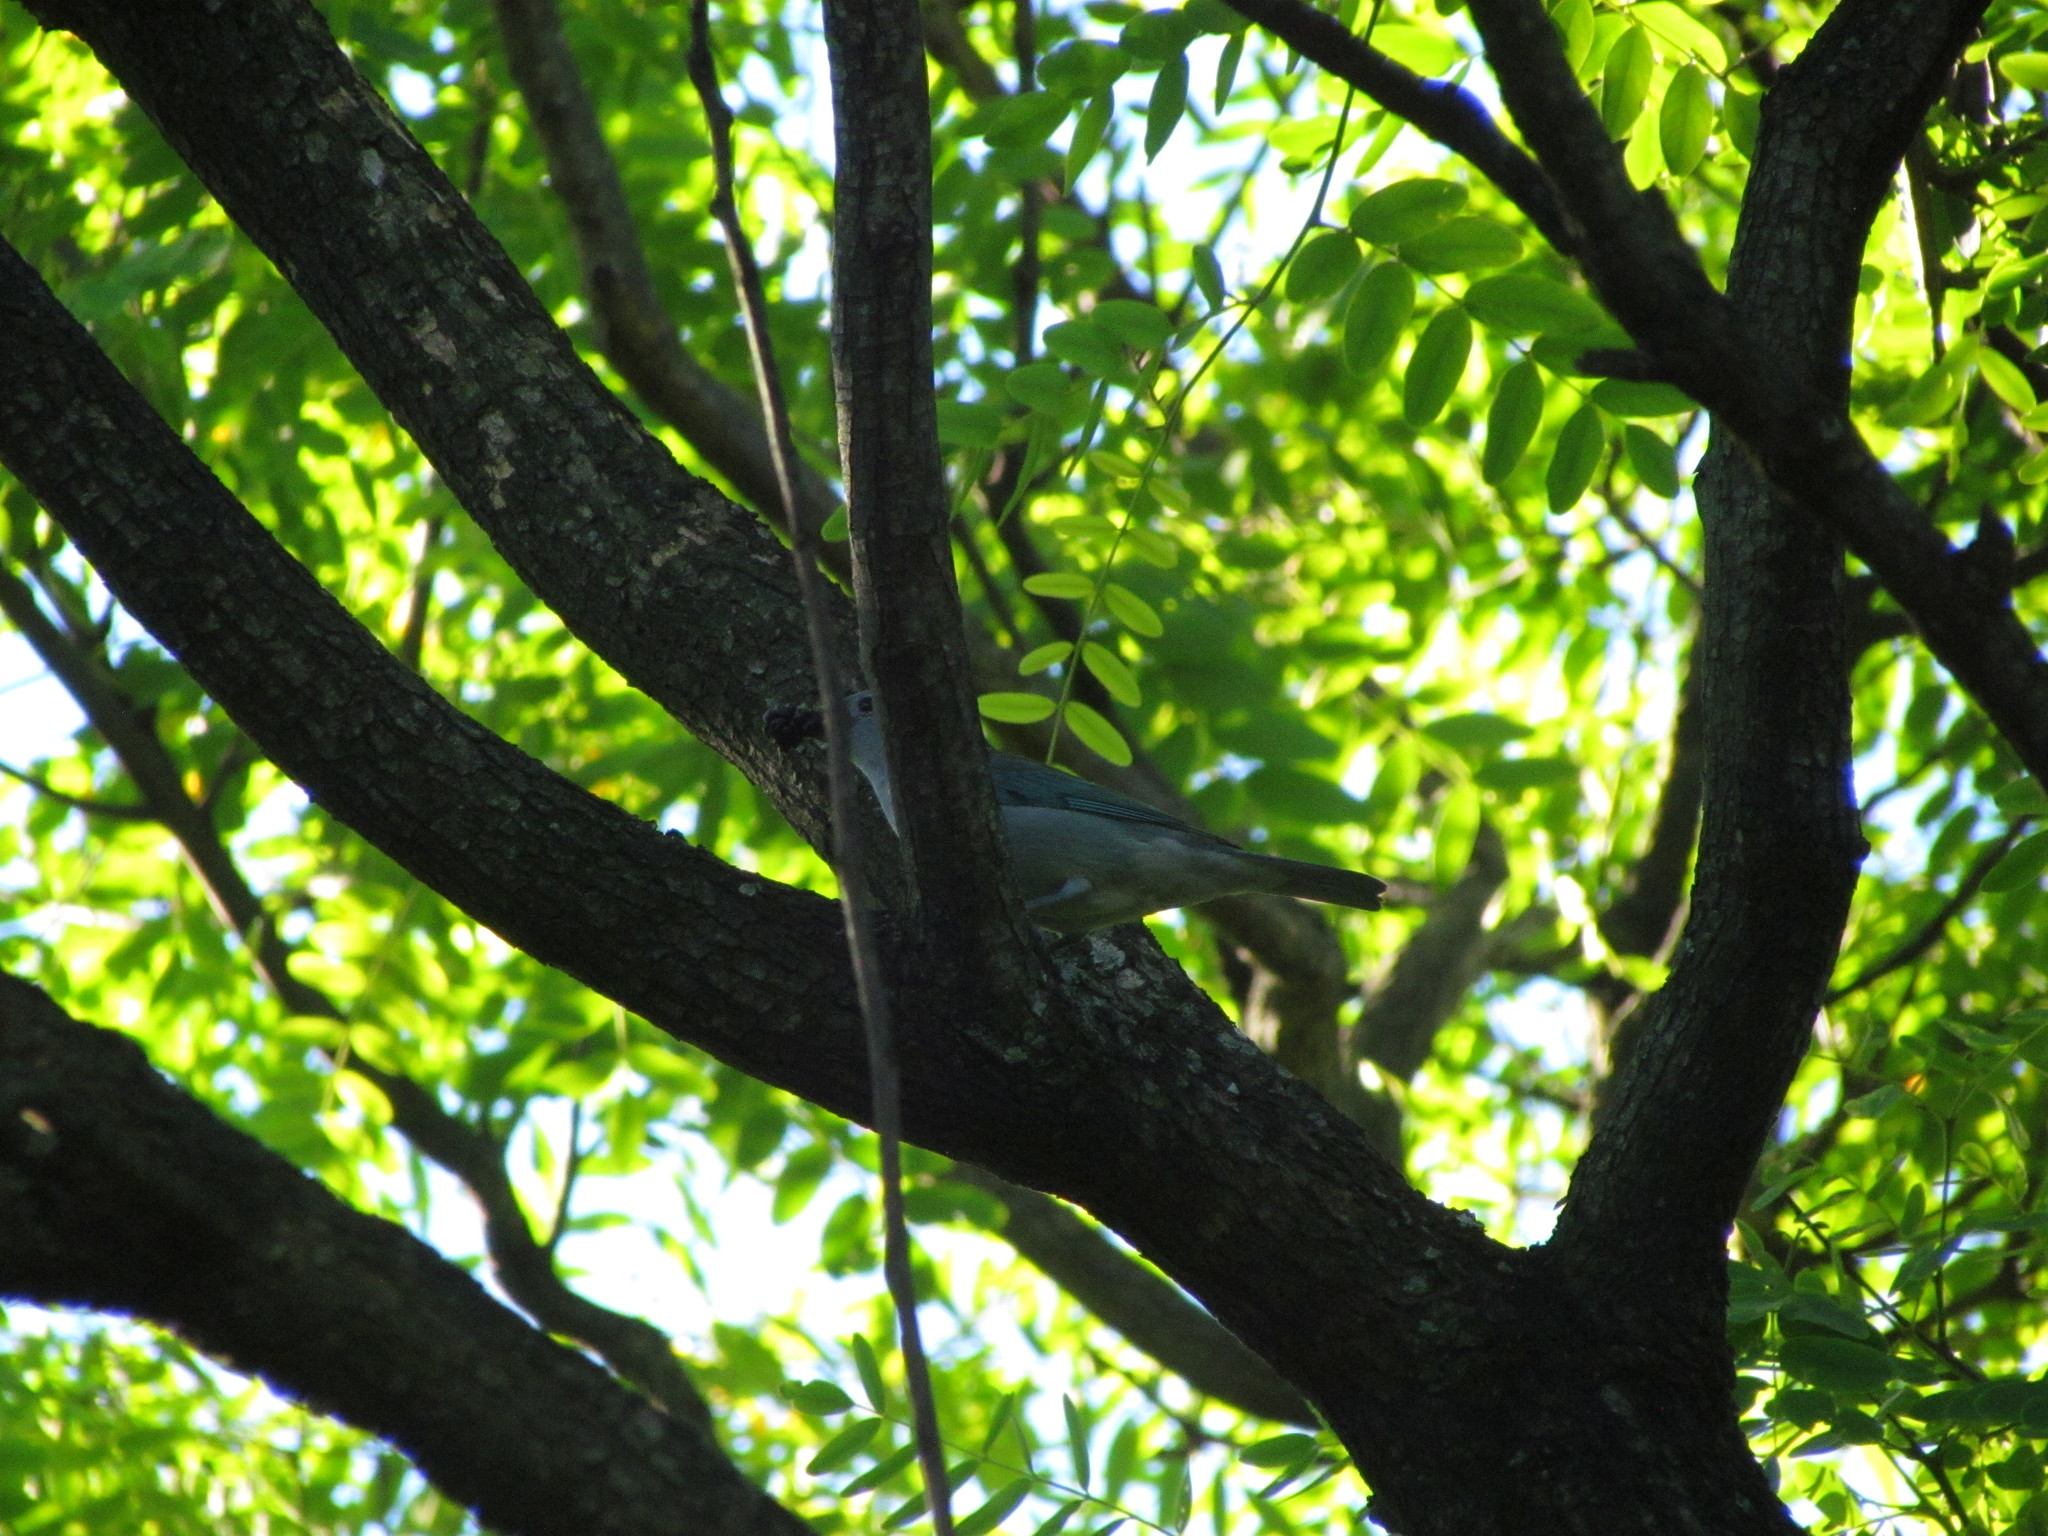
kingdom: Animalia
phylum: Chordata
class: Aves
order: Passeriformes
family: Thraupidae
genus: Thraupis
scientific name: Thraupis sayaca
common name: Sayaca tanager
